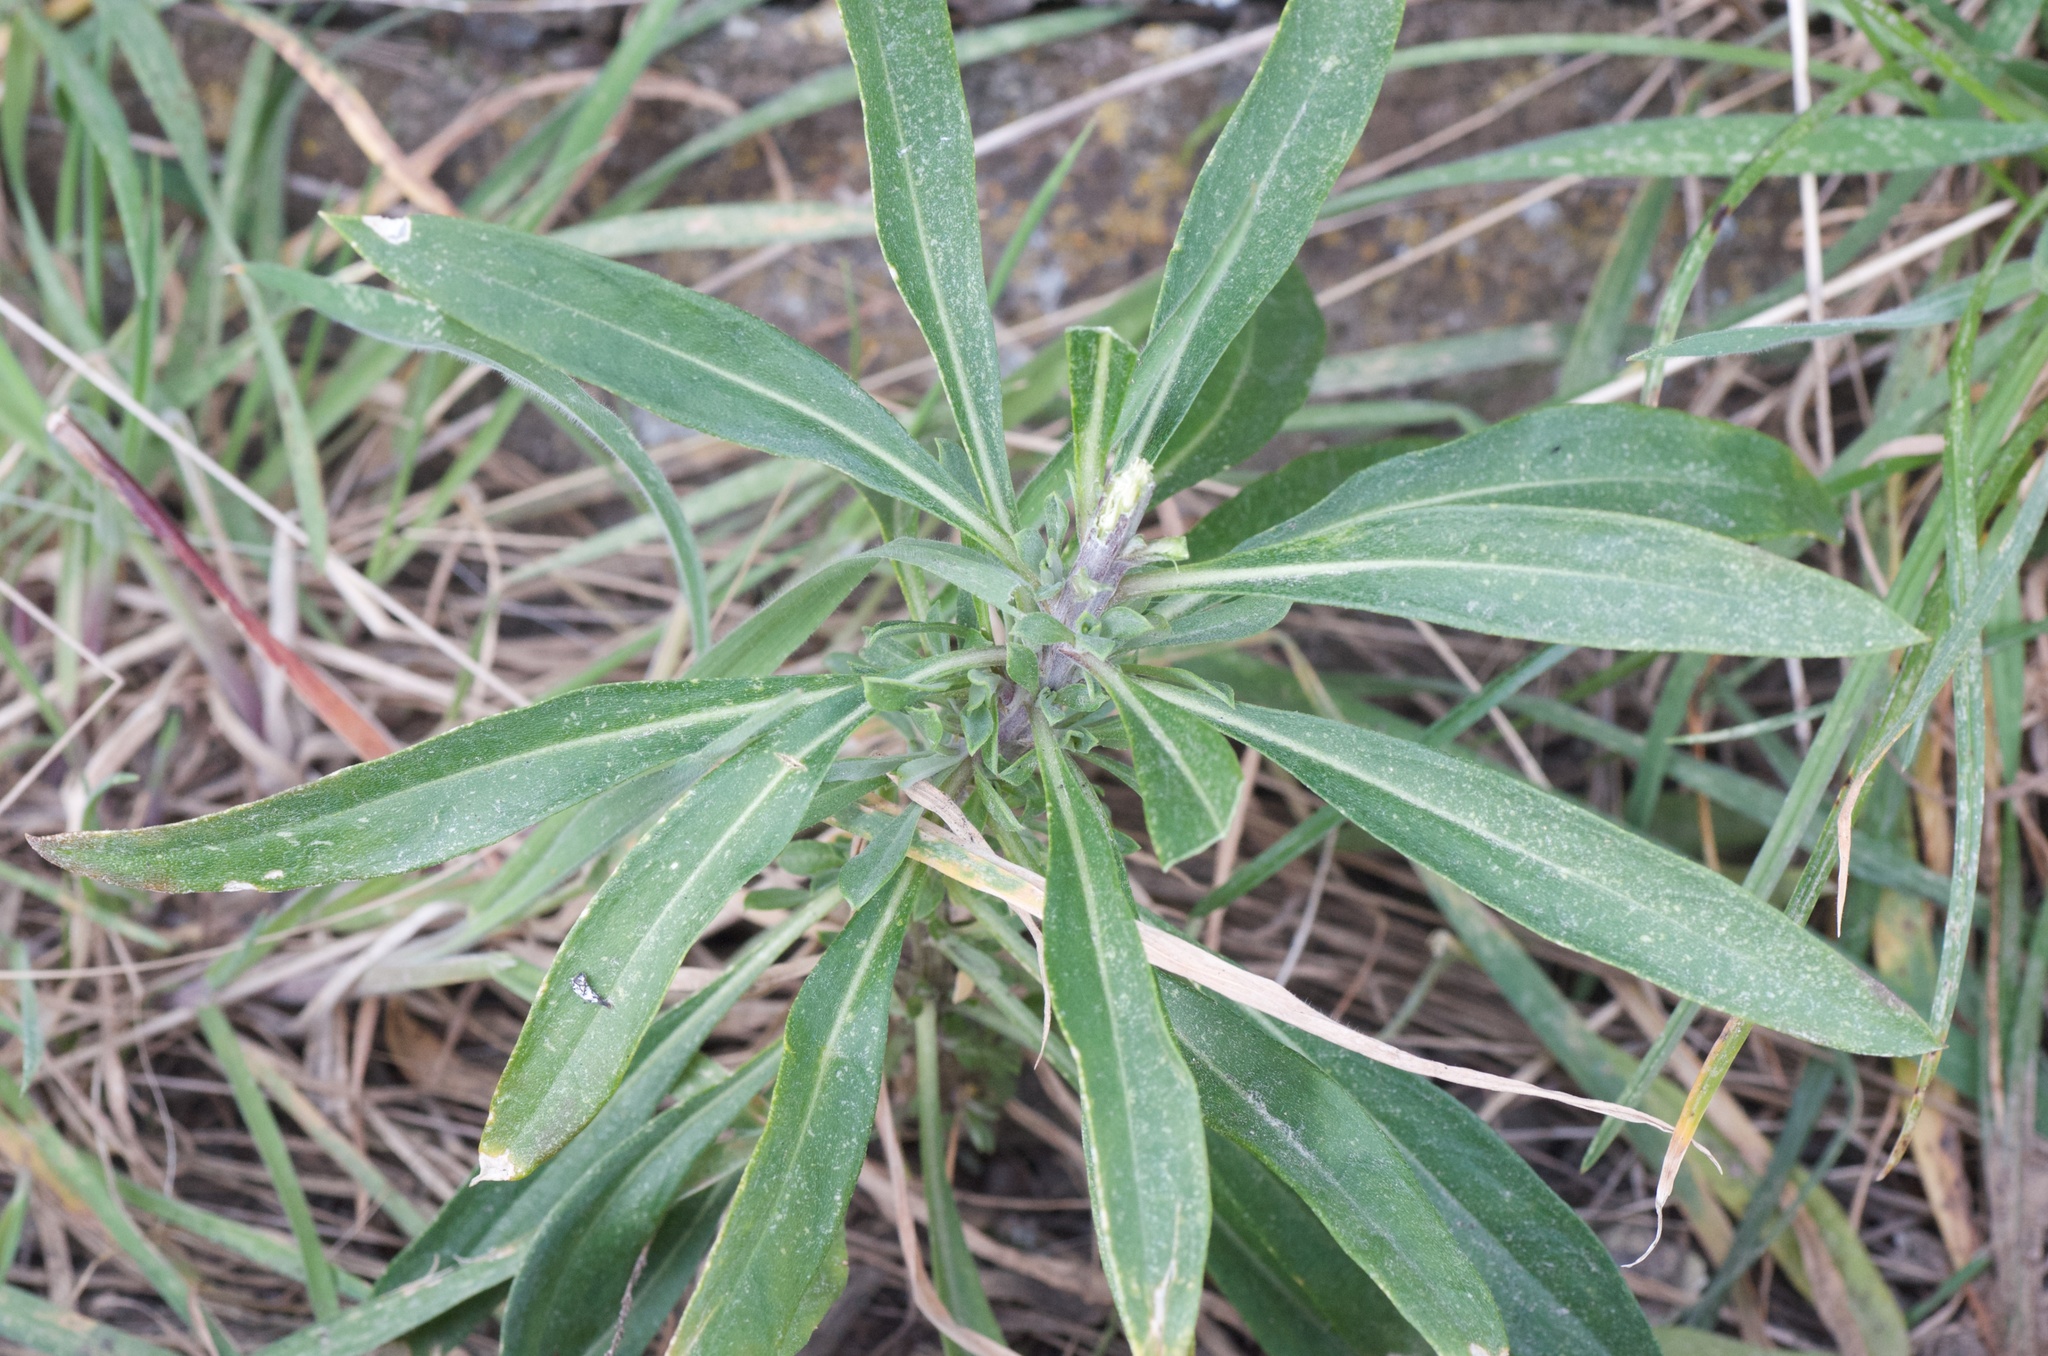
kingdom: Plantae
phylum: Tracheophyta
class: Magnoliopsida
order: Brassicales
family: Brassicaceae
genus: Erysimum
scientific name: Erysimum cheiri
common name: Wallflower
